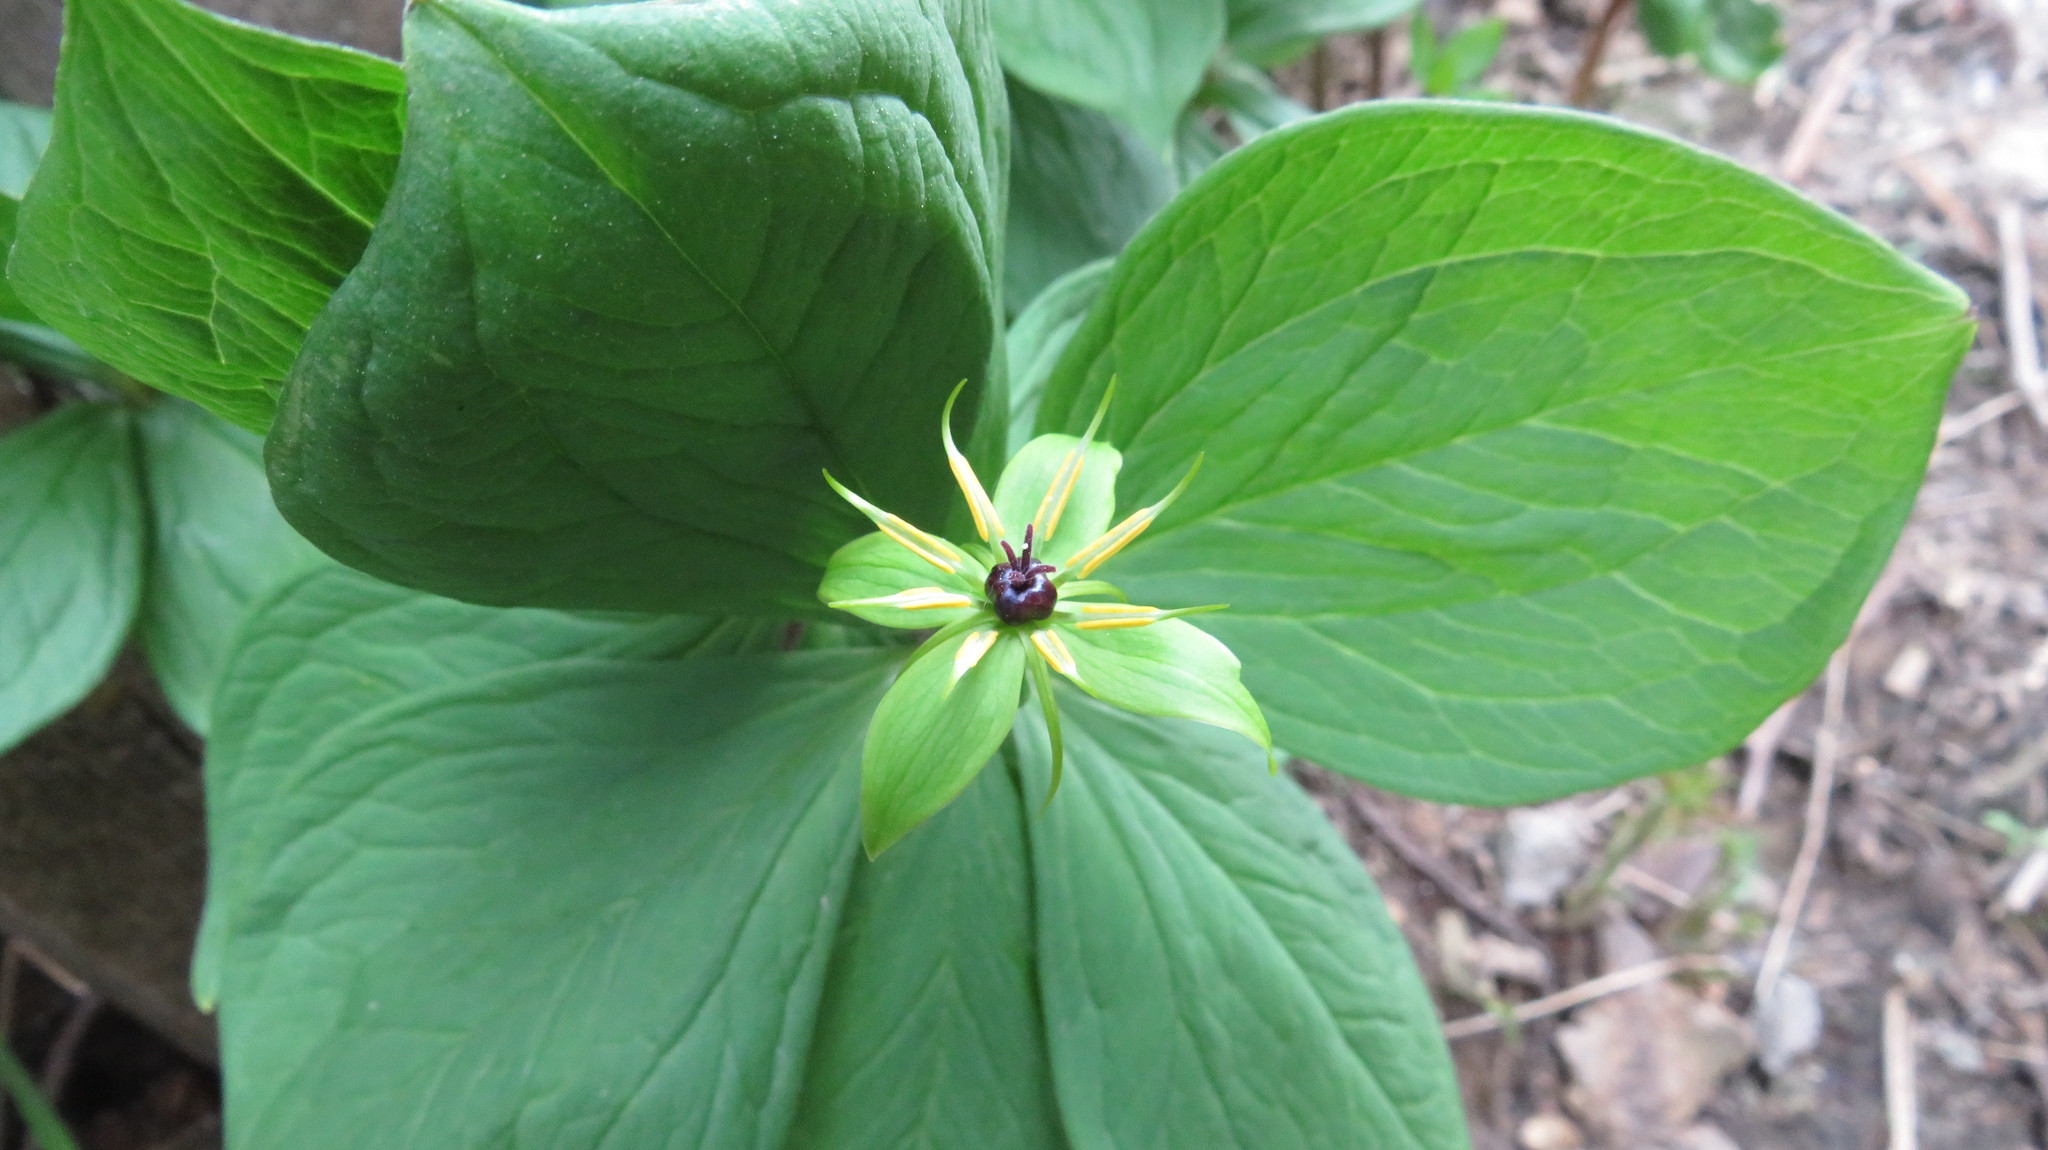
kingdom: Plantae
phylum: Tracheophyta
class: Liliopsida
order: Liliales
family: Melanthiaceae
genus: Paris
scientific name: Paris quadrifolia
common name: Herb-paris
